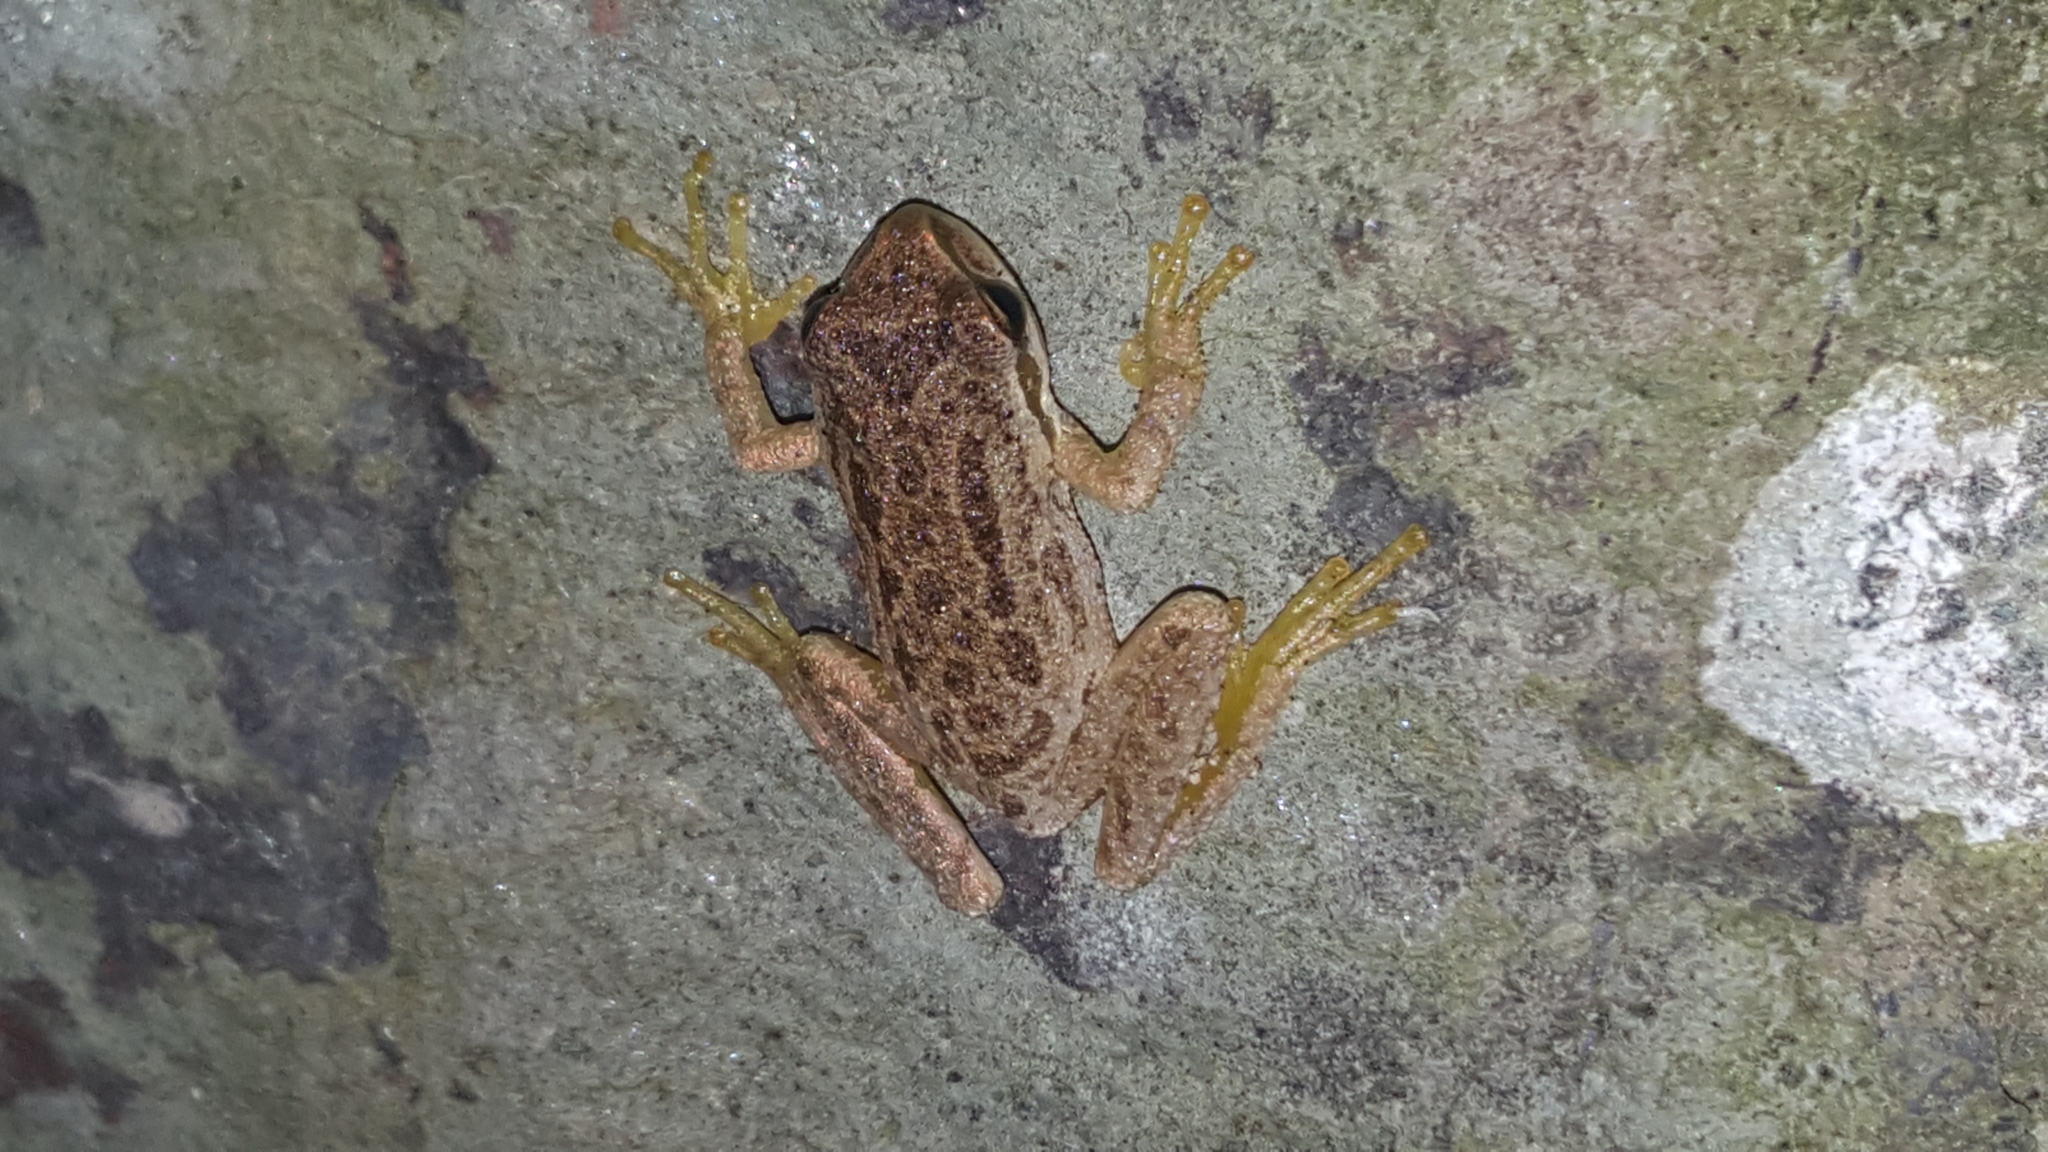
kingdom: Animalia
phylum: Chordata
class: Amphibia
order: Anura
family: Hylidae
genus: Pseudacris
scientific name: Pseudacris regilla
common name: Pacific chorus frog
